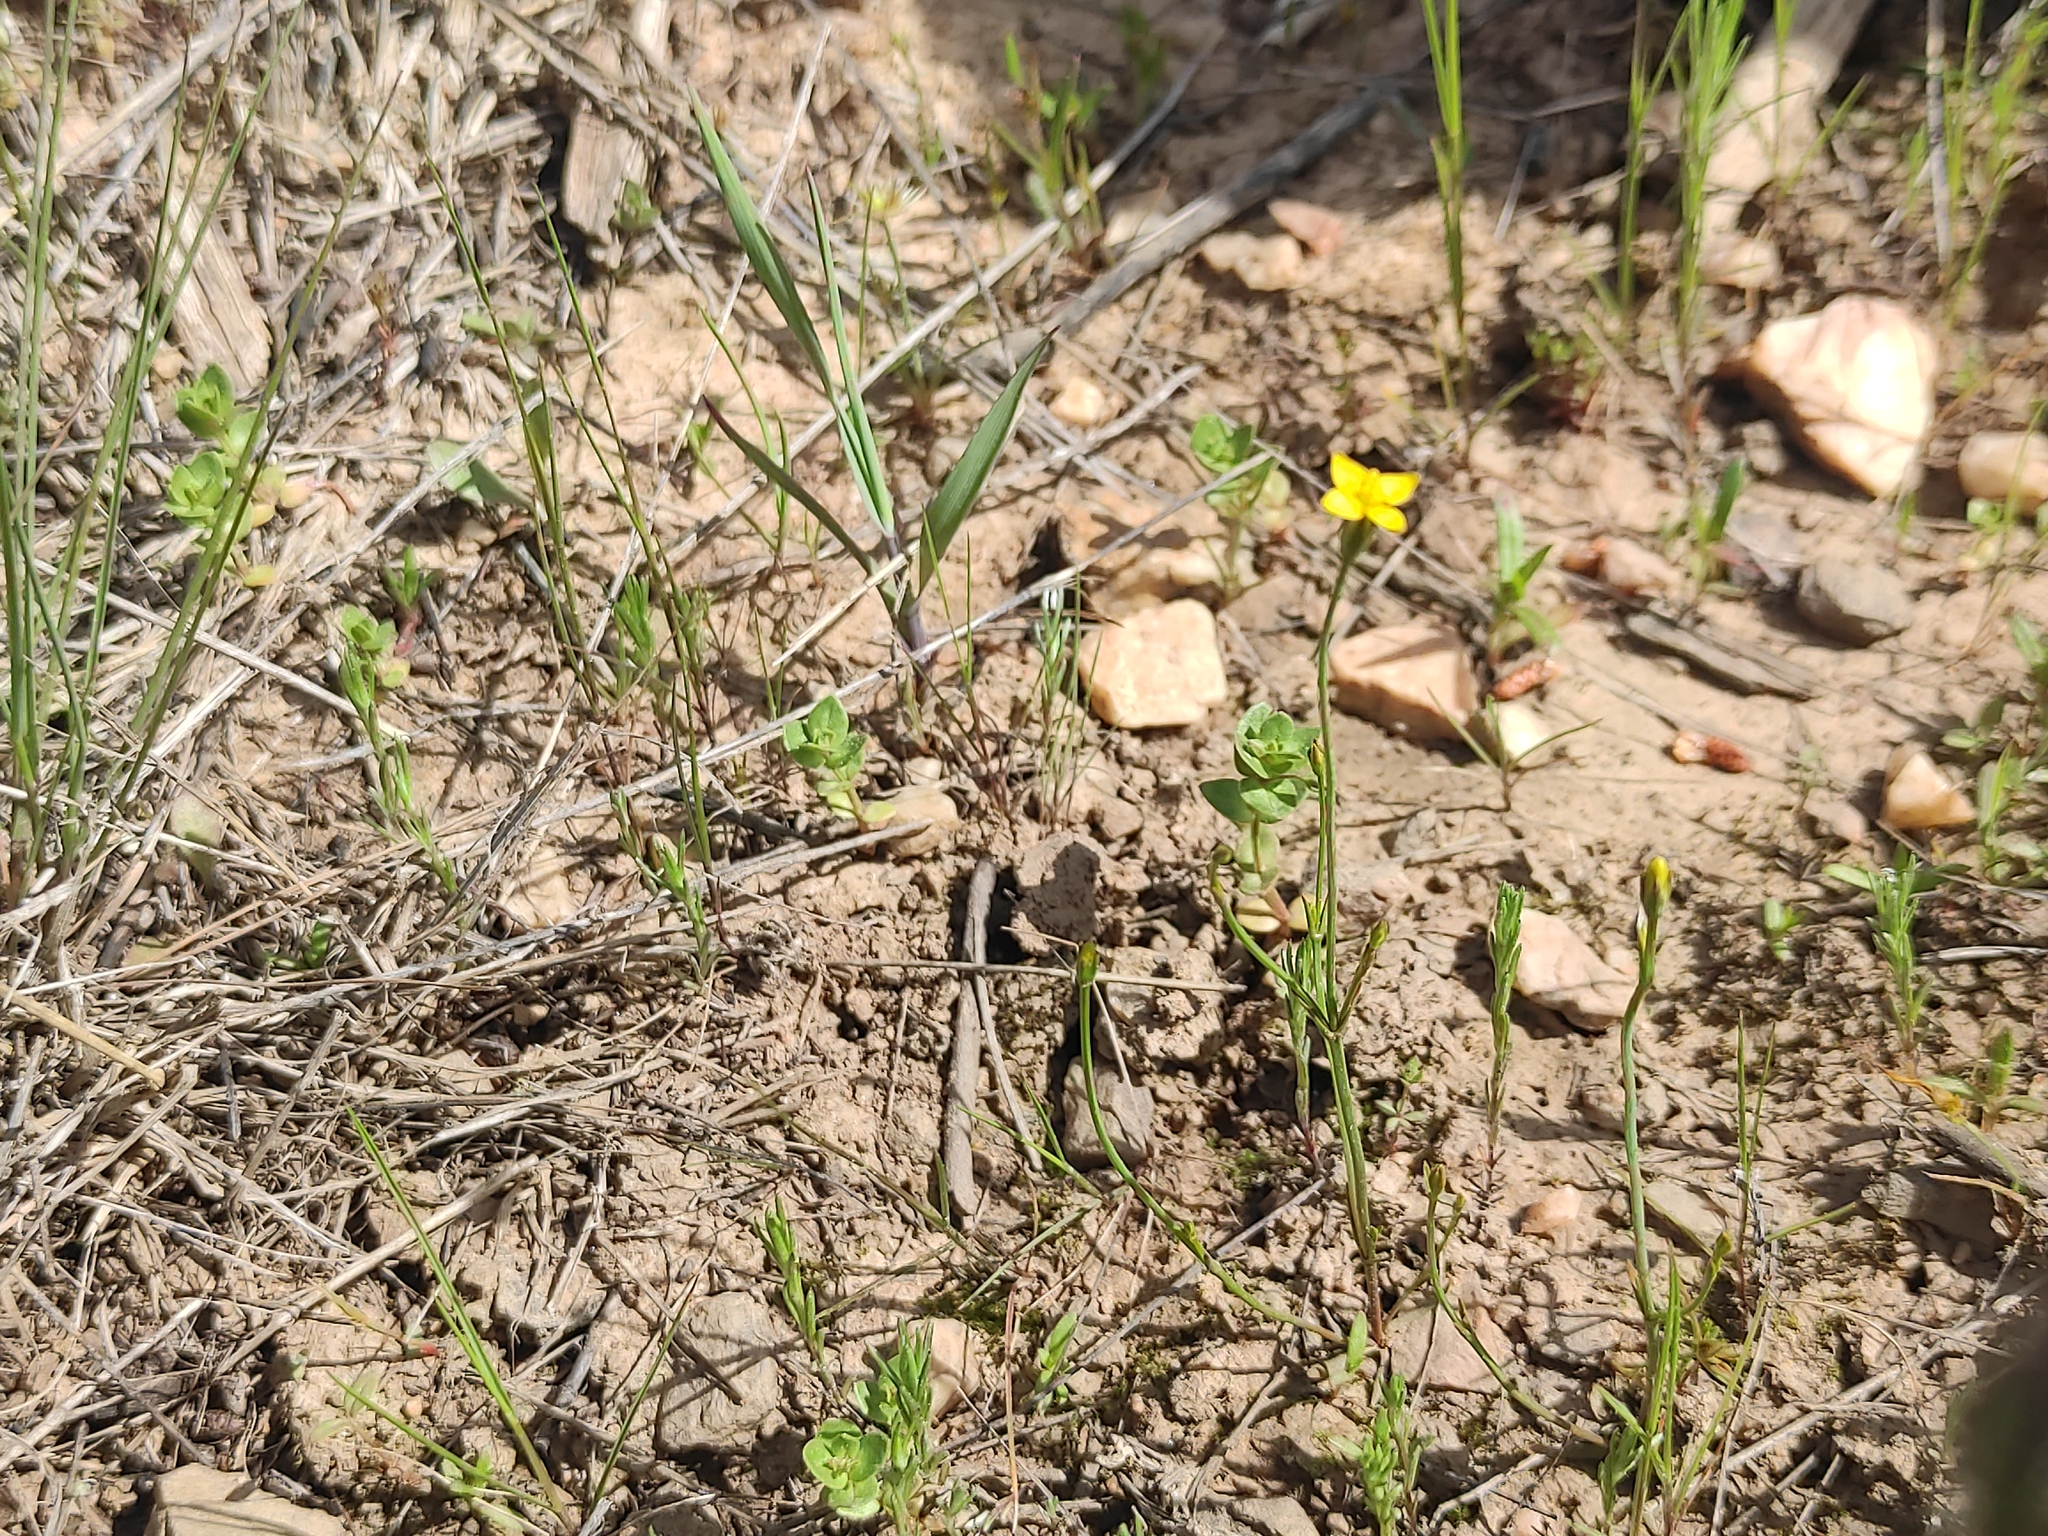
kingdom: Plantae
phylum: Tracheophyta
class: Magnoliopsida
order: Gentianales
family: Gentianaceae
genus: Cicendia
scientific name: Cicendia filiformis
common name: Yellow centaury
